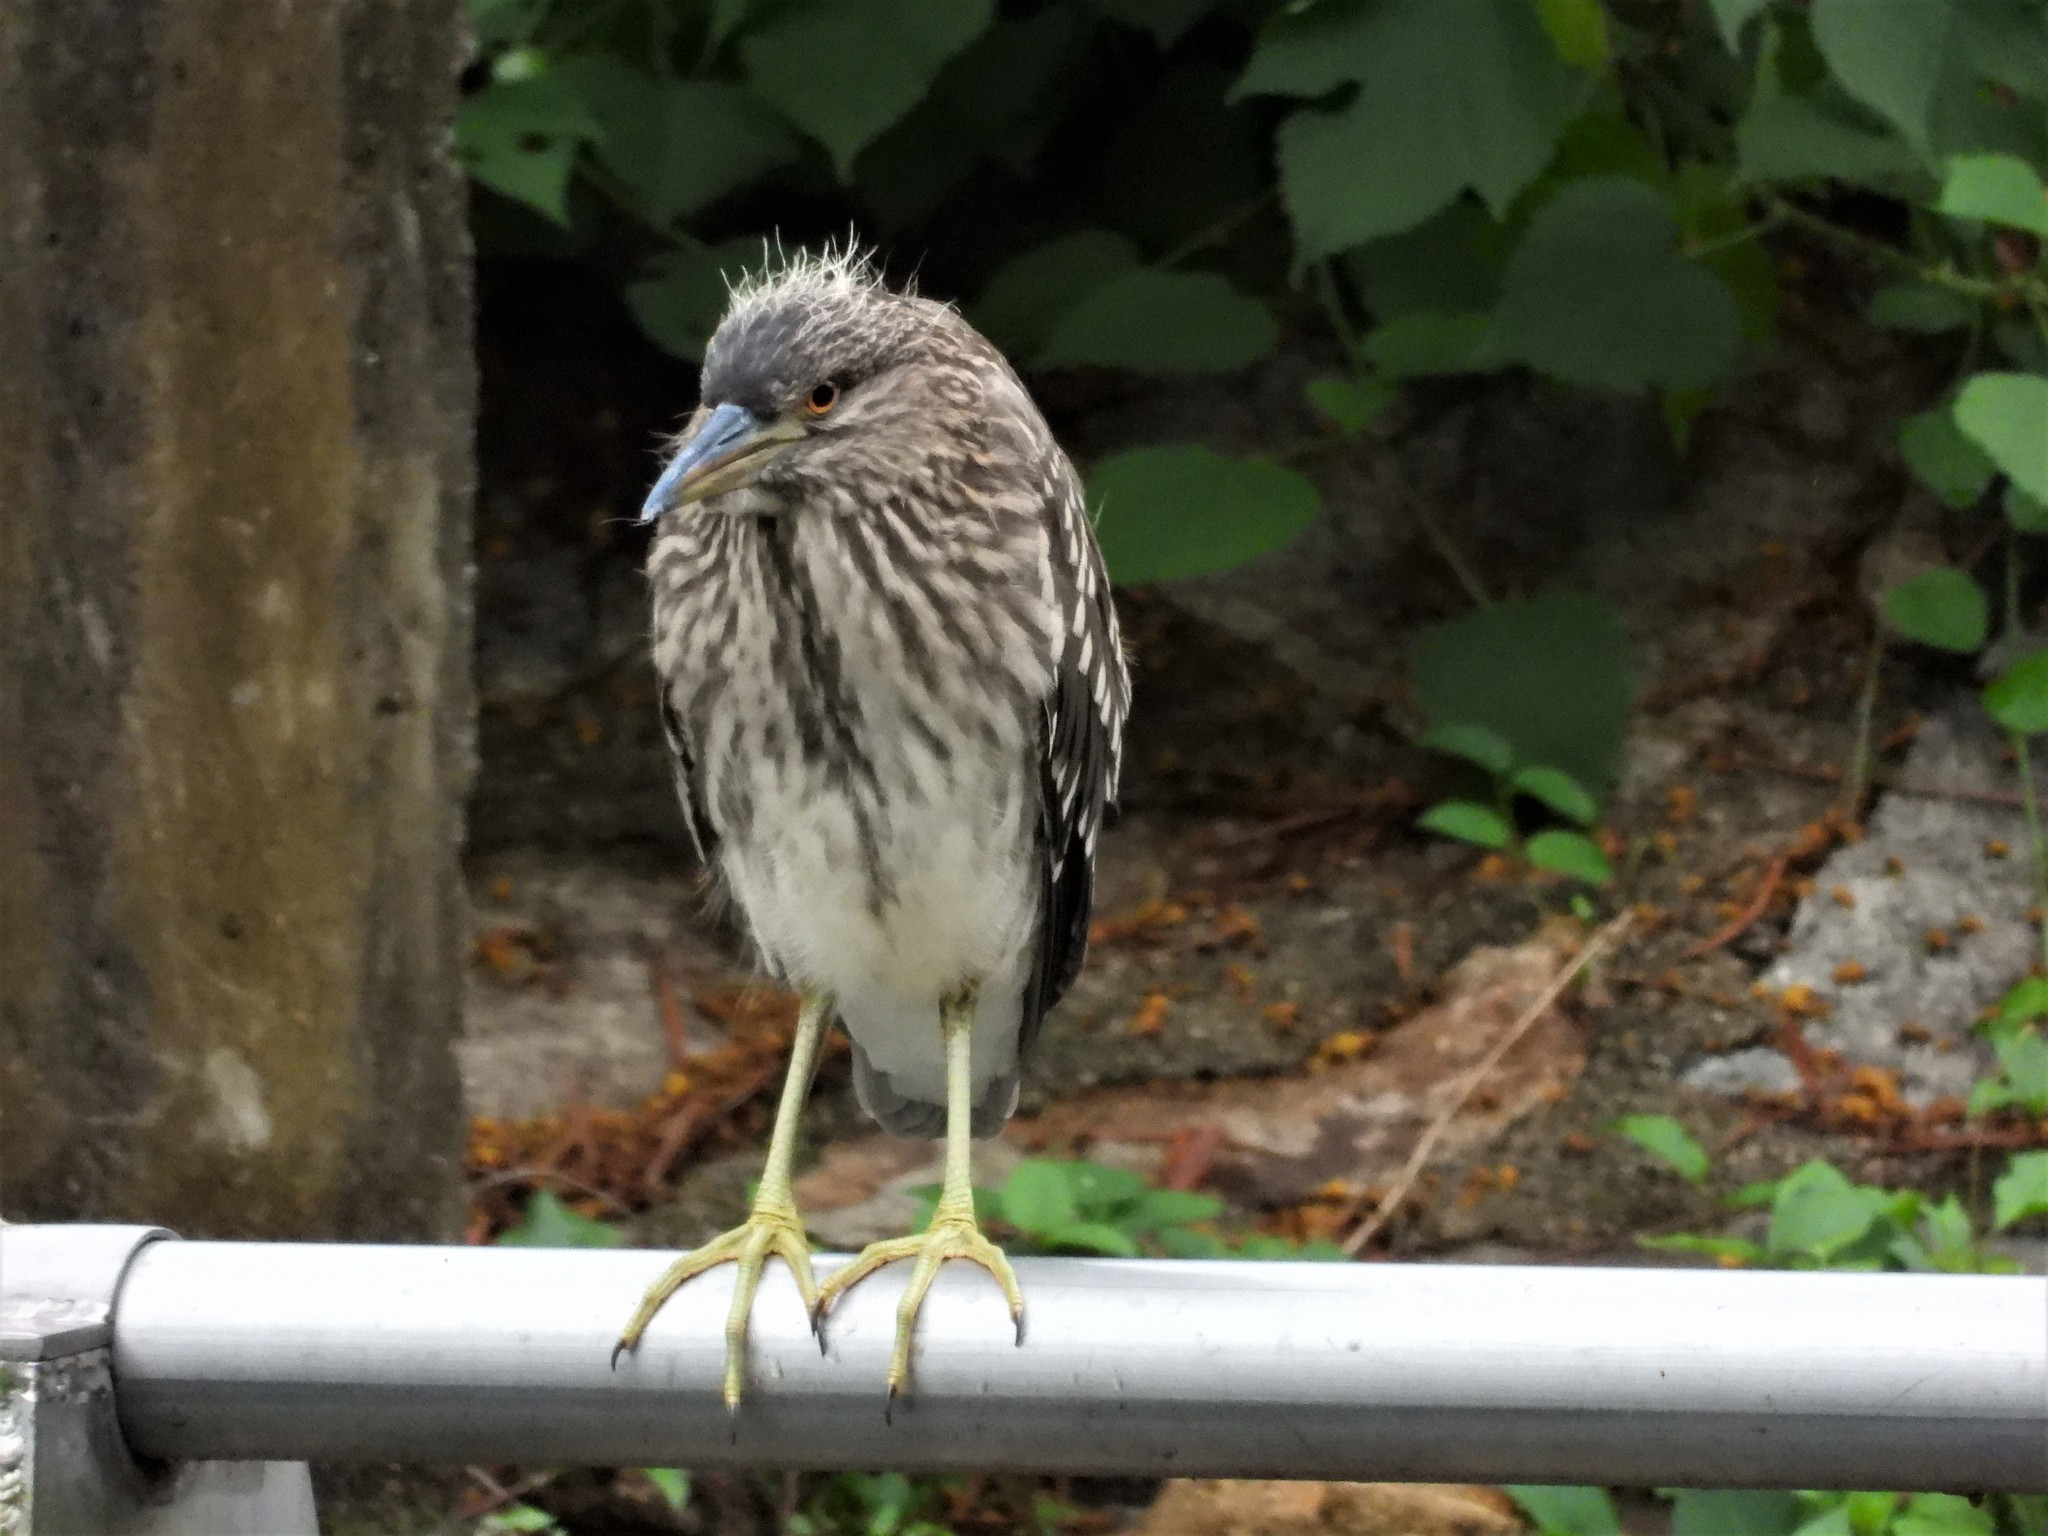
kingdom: Animalia
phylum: Chordata
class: Aves
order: Pelecaniformes
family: Ardeidae
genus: Nycticorax
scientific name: Nycticorax nycticorax
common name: Black-crowned night heron
